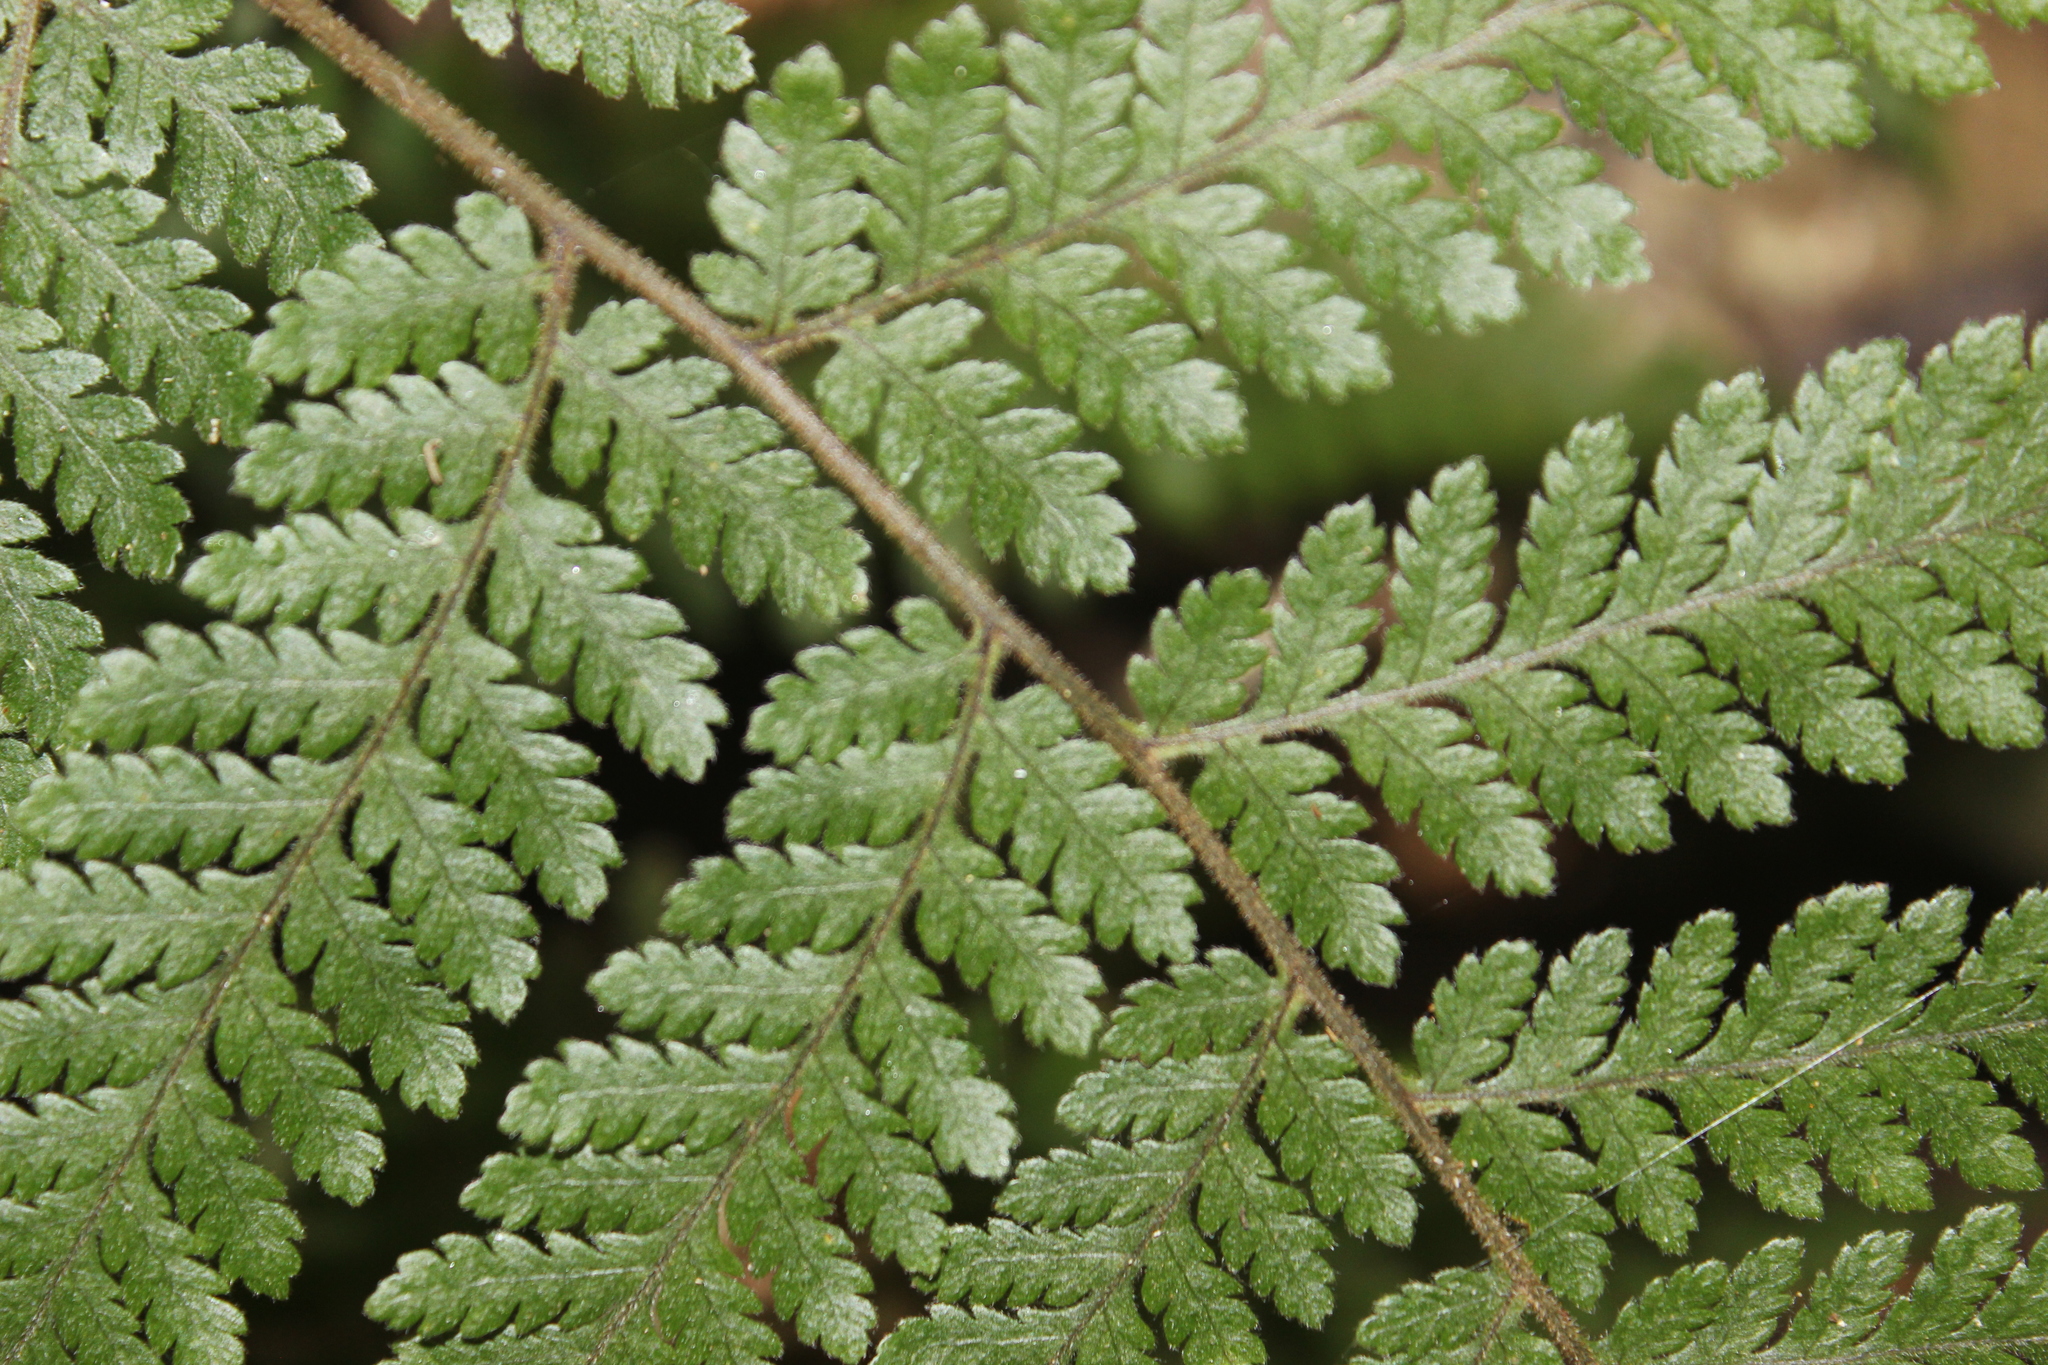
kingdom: Plantae
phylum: Tracheophyta
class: Polypodiopsida
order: Polypodiales
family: Dryopteridaceae
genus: Lastreopsis
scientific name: Lastreopsis velutina
